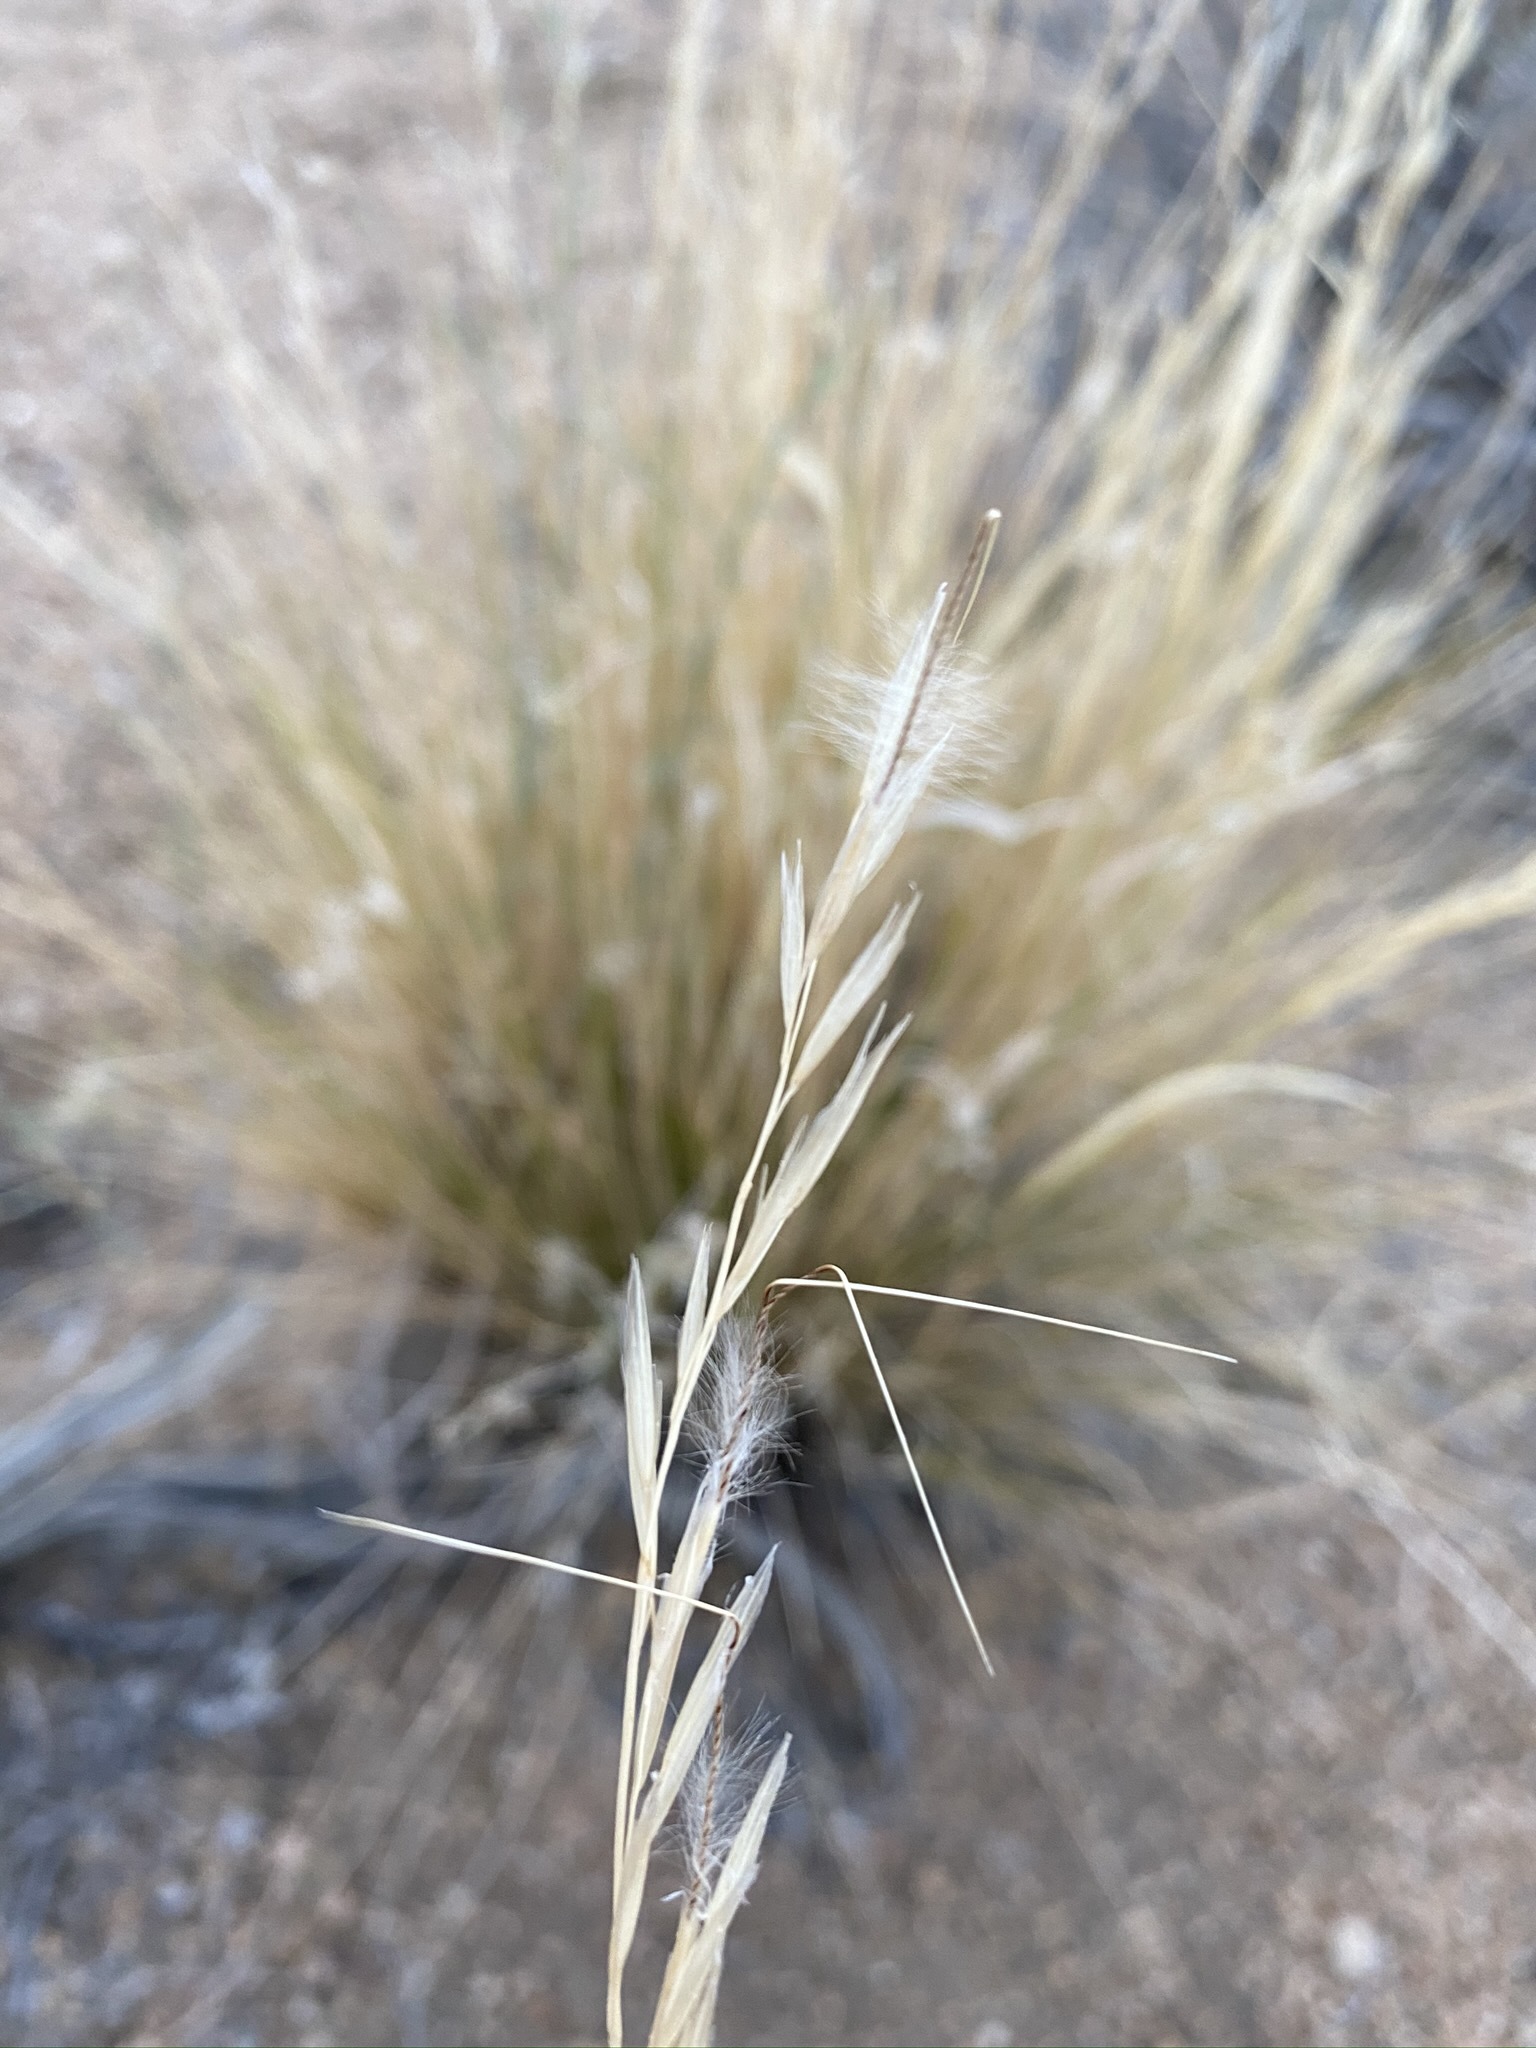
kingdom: Plantae
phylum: Tracheophyta
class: Liliopsida
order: Poales
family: Poaceae
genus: Pappostipa
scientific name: Pappostipa speciosa
